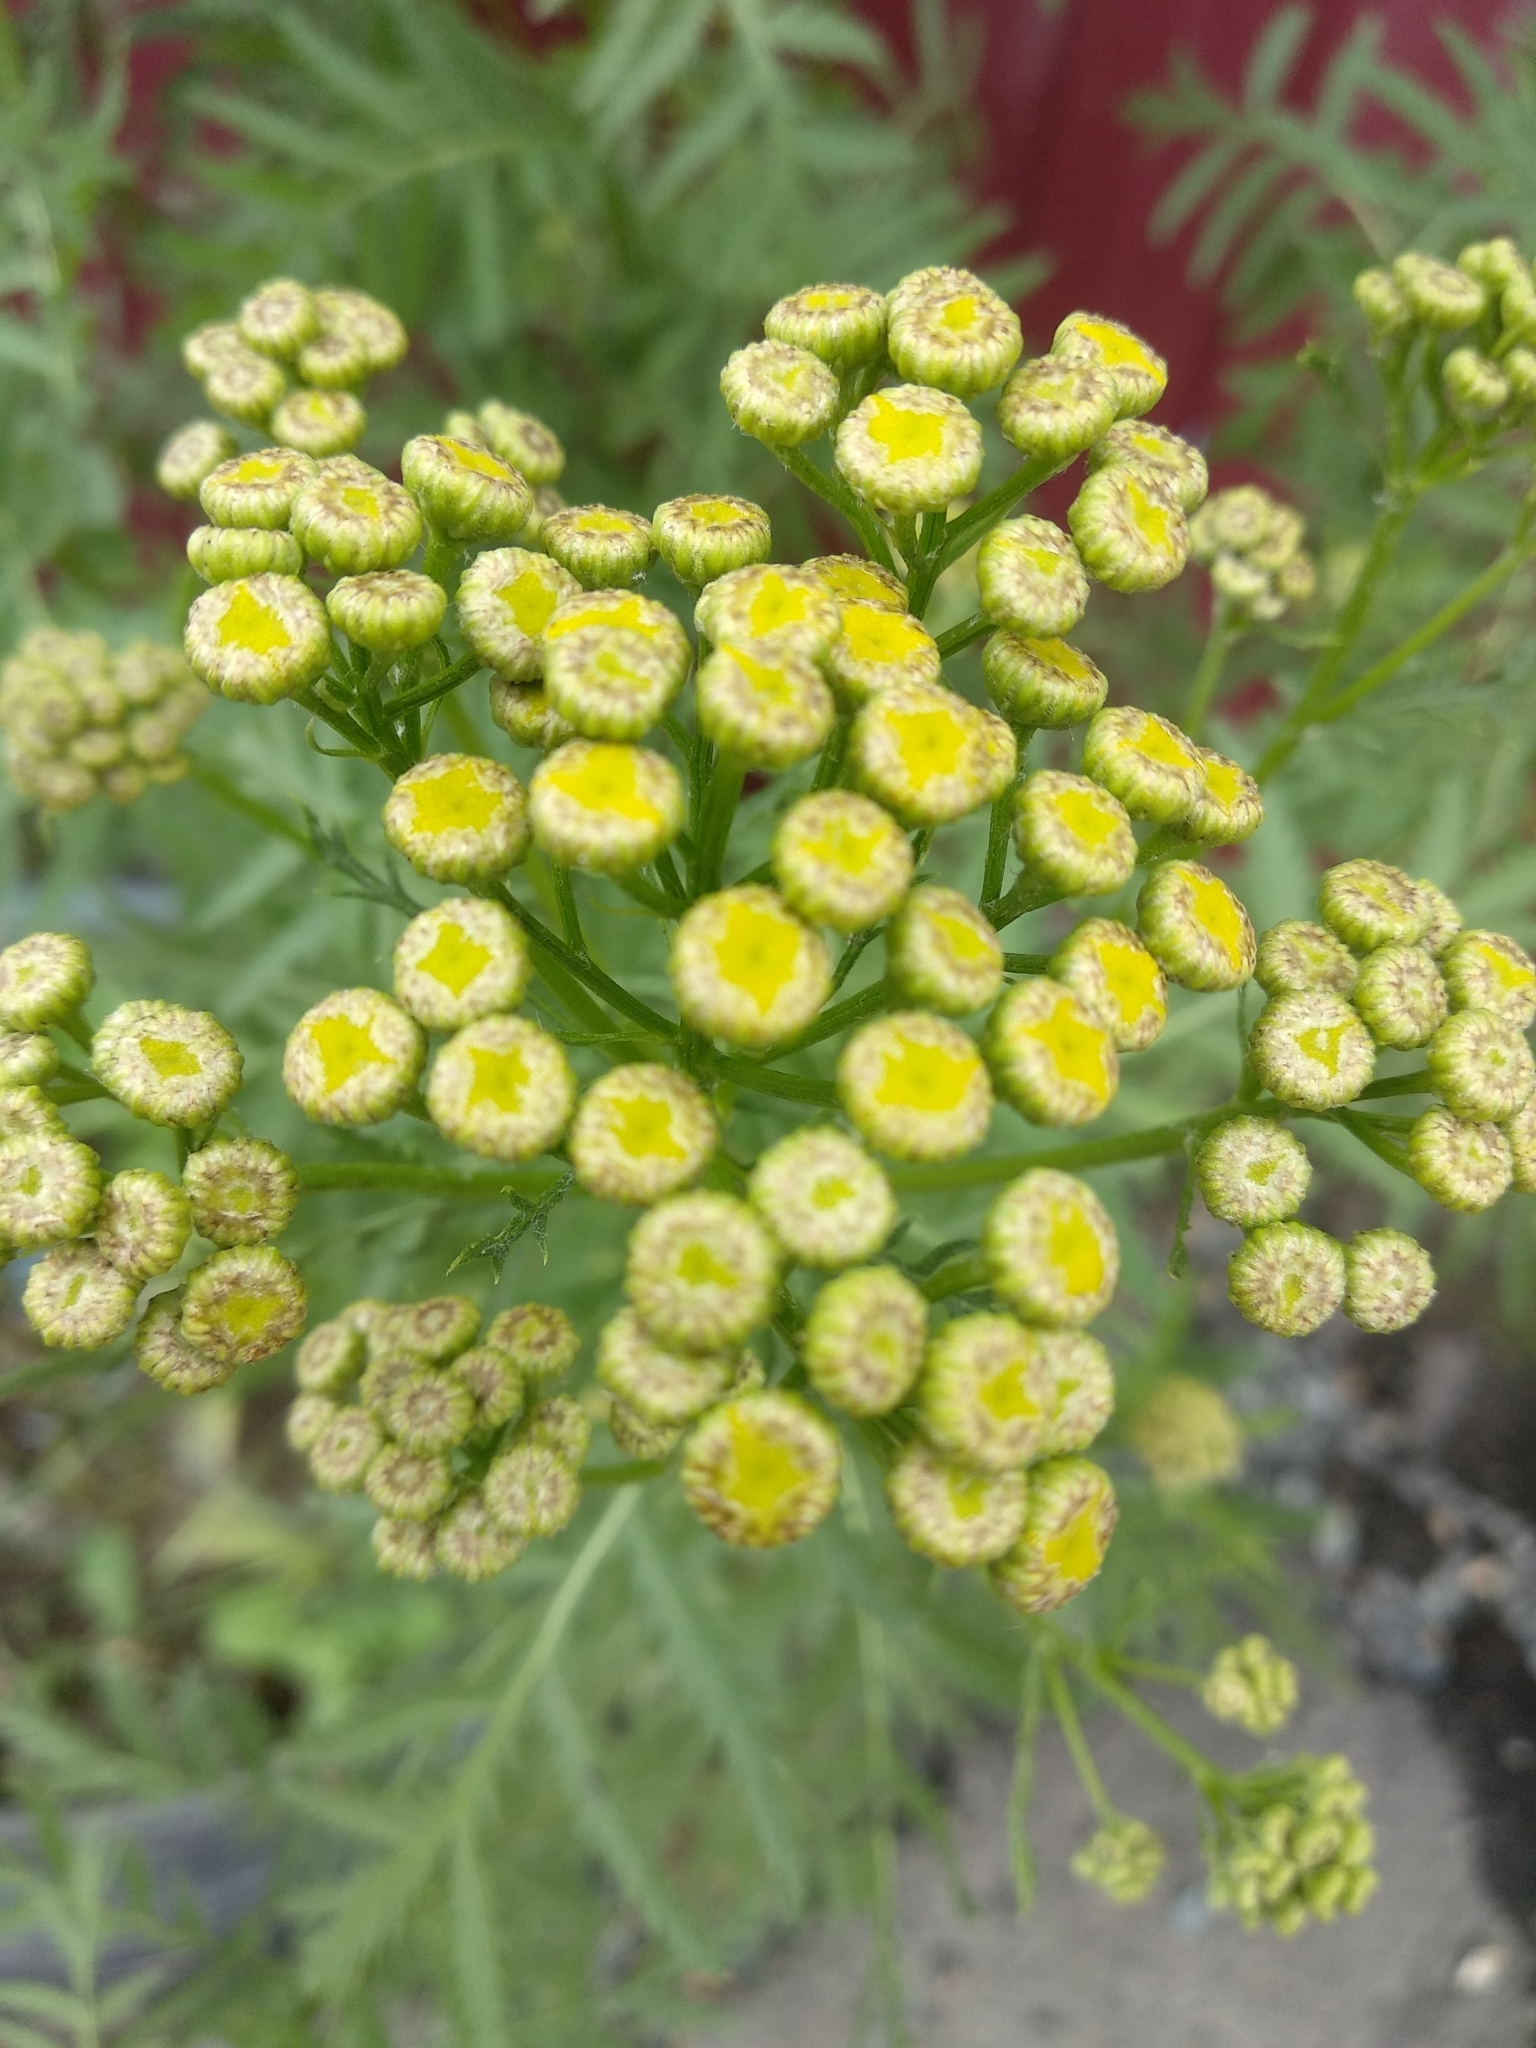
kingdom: Plantae
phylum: Tracheophyta
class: Magnoliopsida
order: Asterales
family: Asteraceae
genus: Tanacetum
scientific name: Tanacetum vulgare
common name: Common tansy
